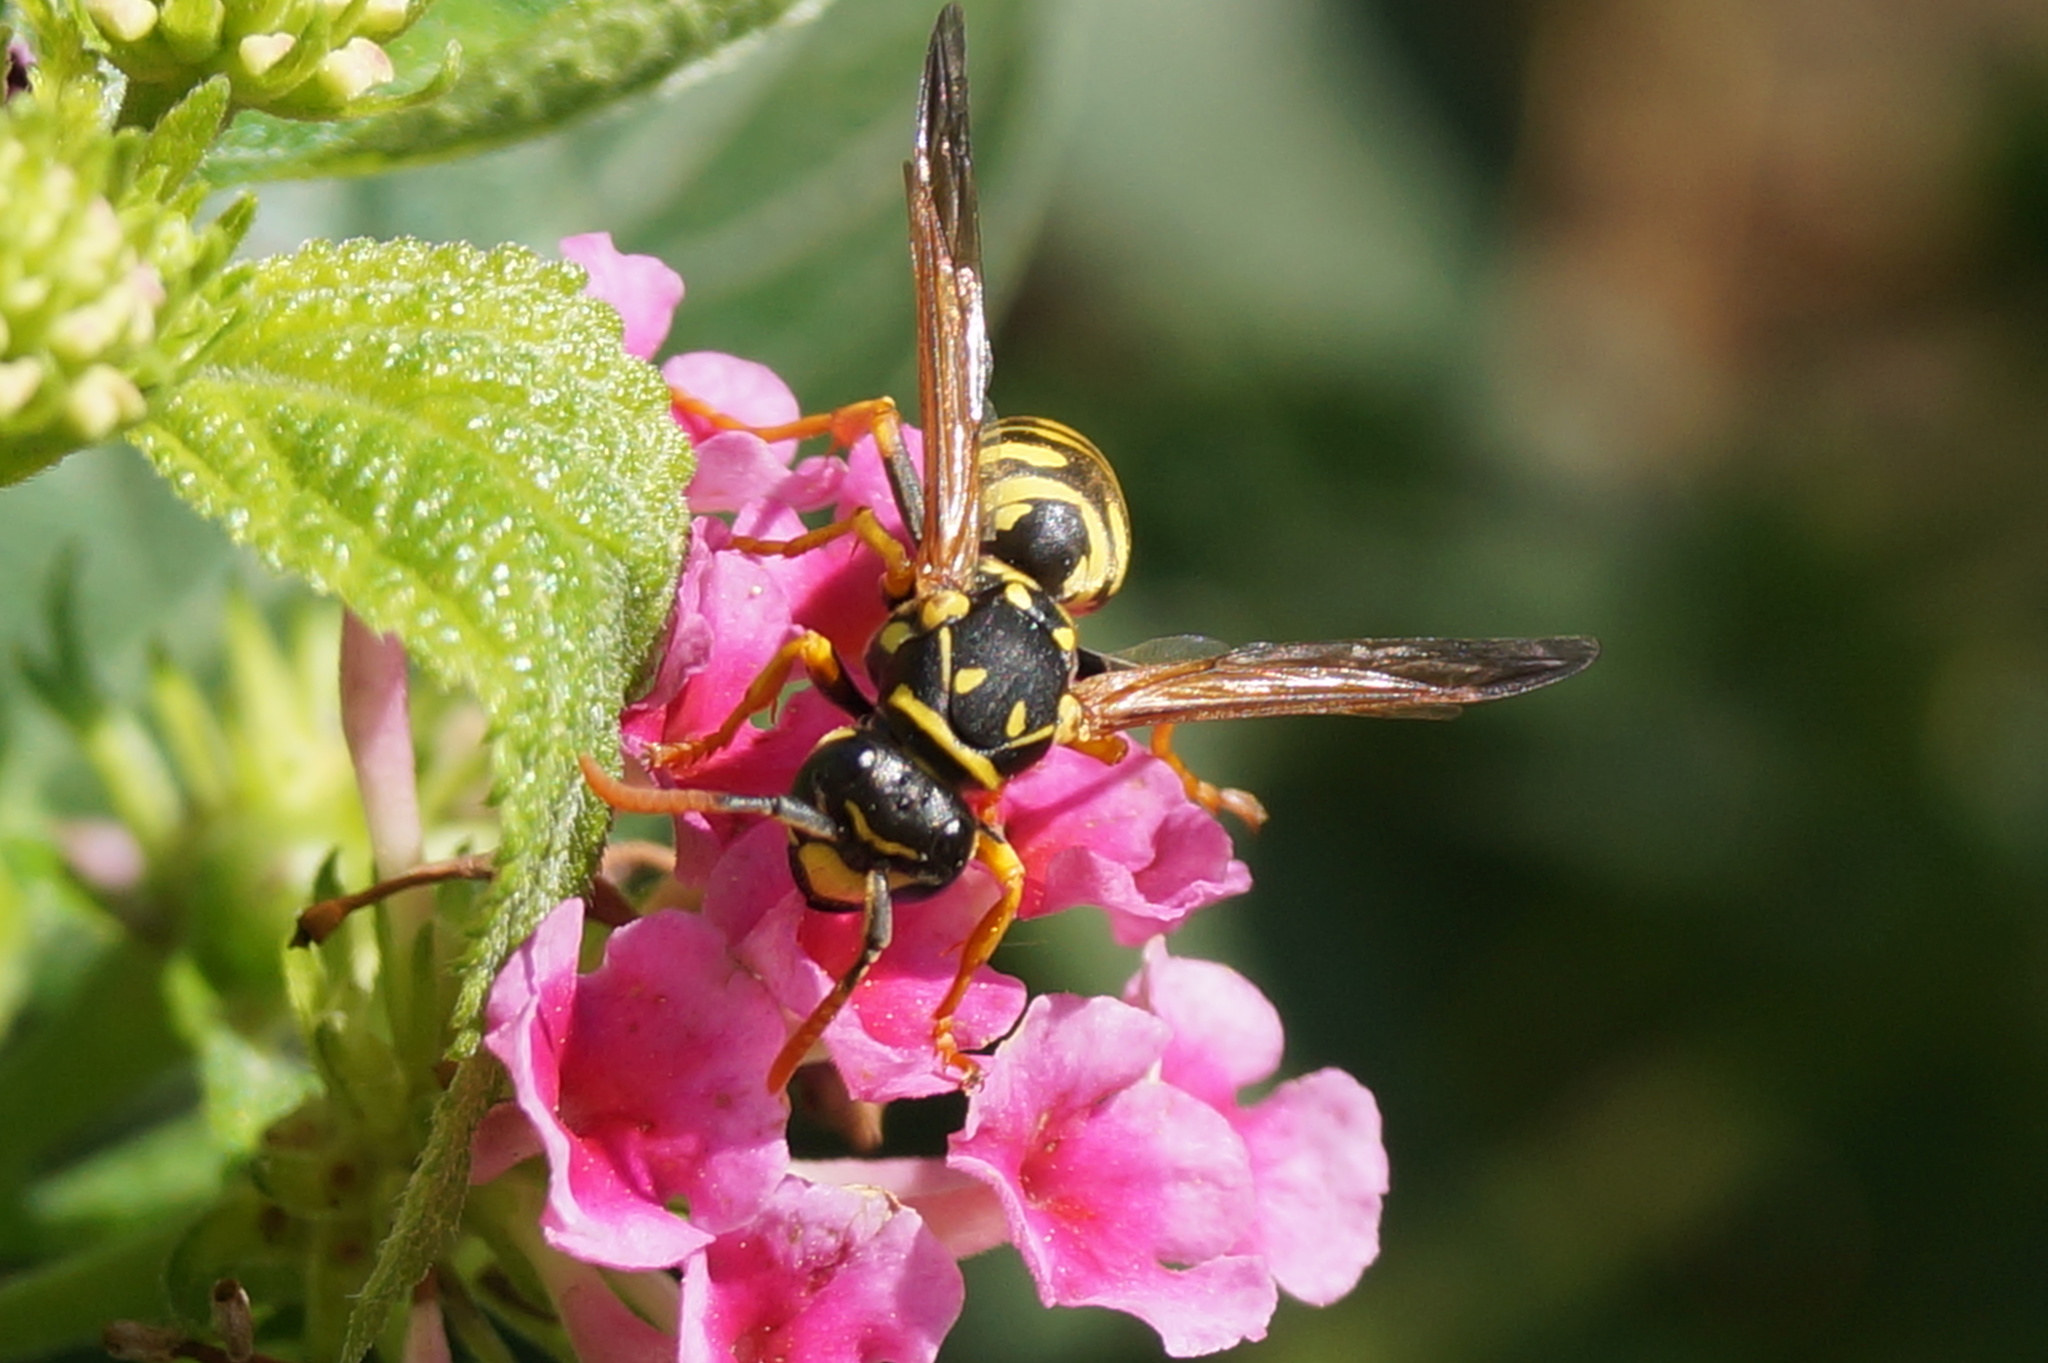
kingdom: Animalia
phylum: Arthropoda
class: Insecta
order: Hymenoptera
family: Eumenidae
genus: Polistes
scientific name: Polistes dominula
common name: Paper wasp
